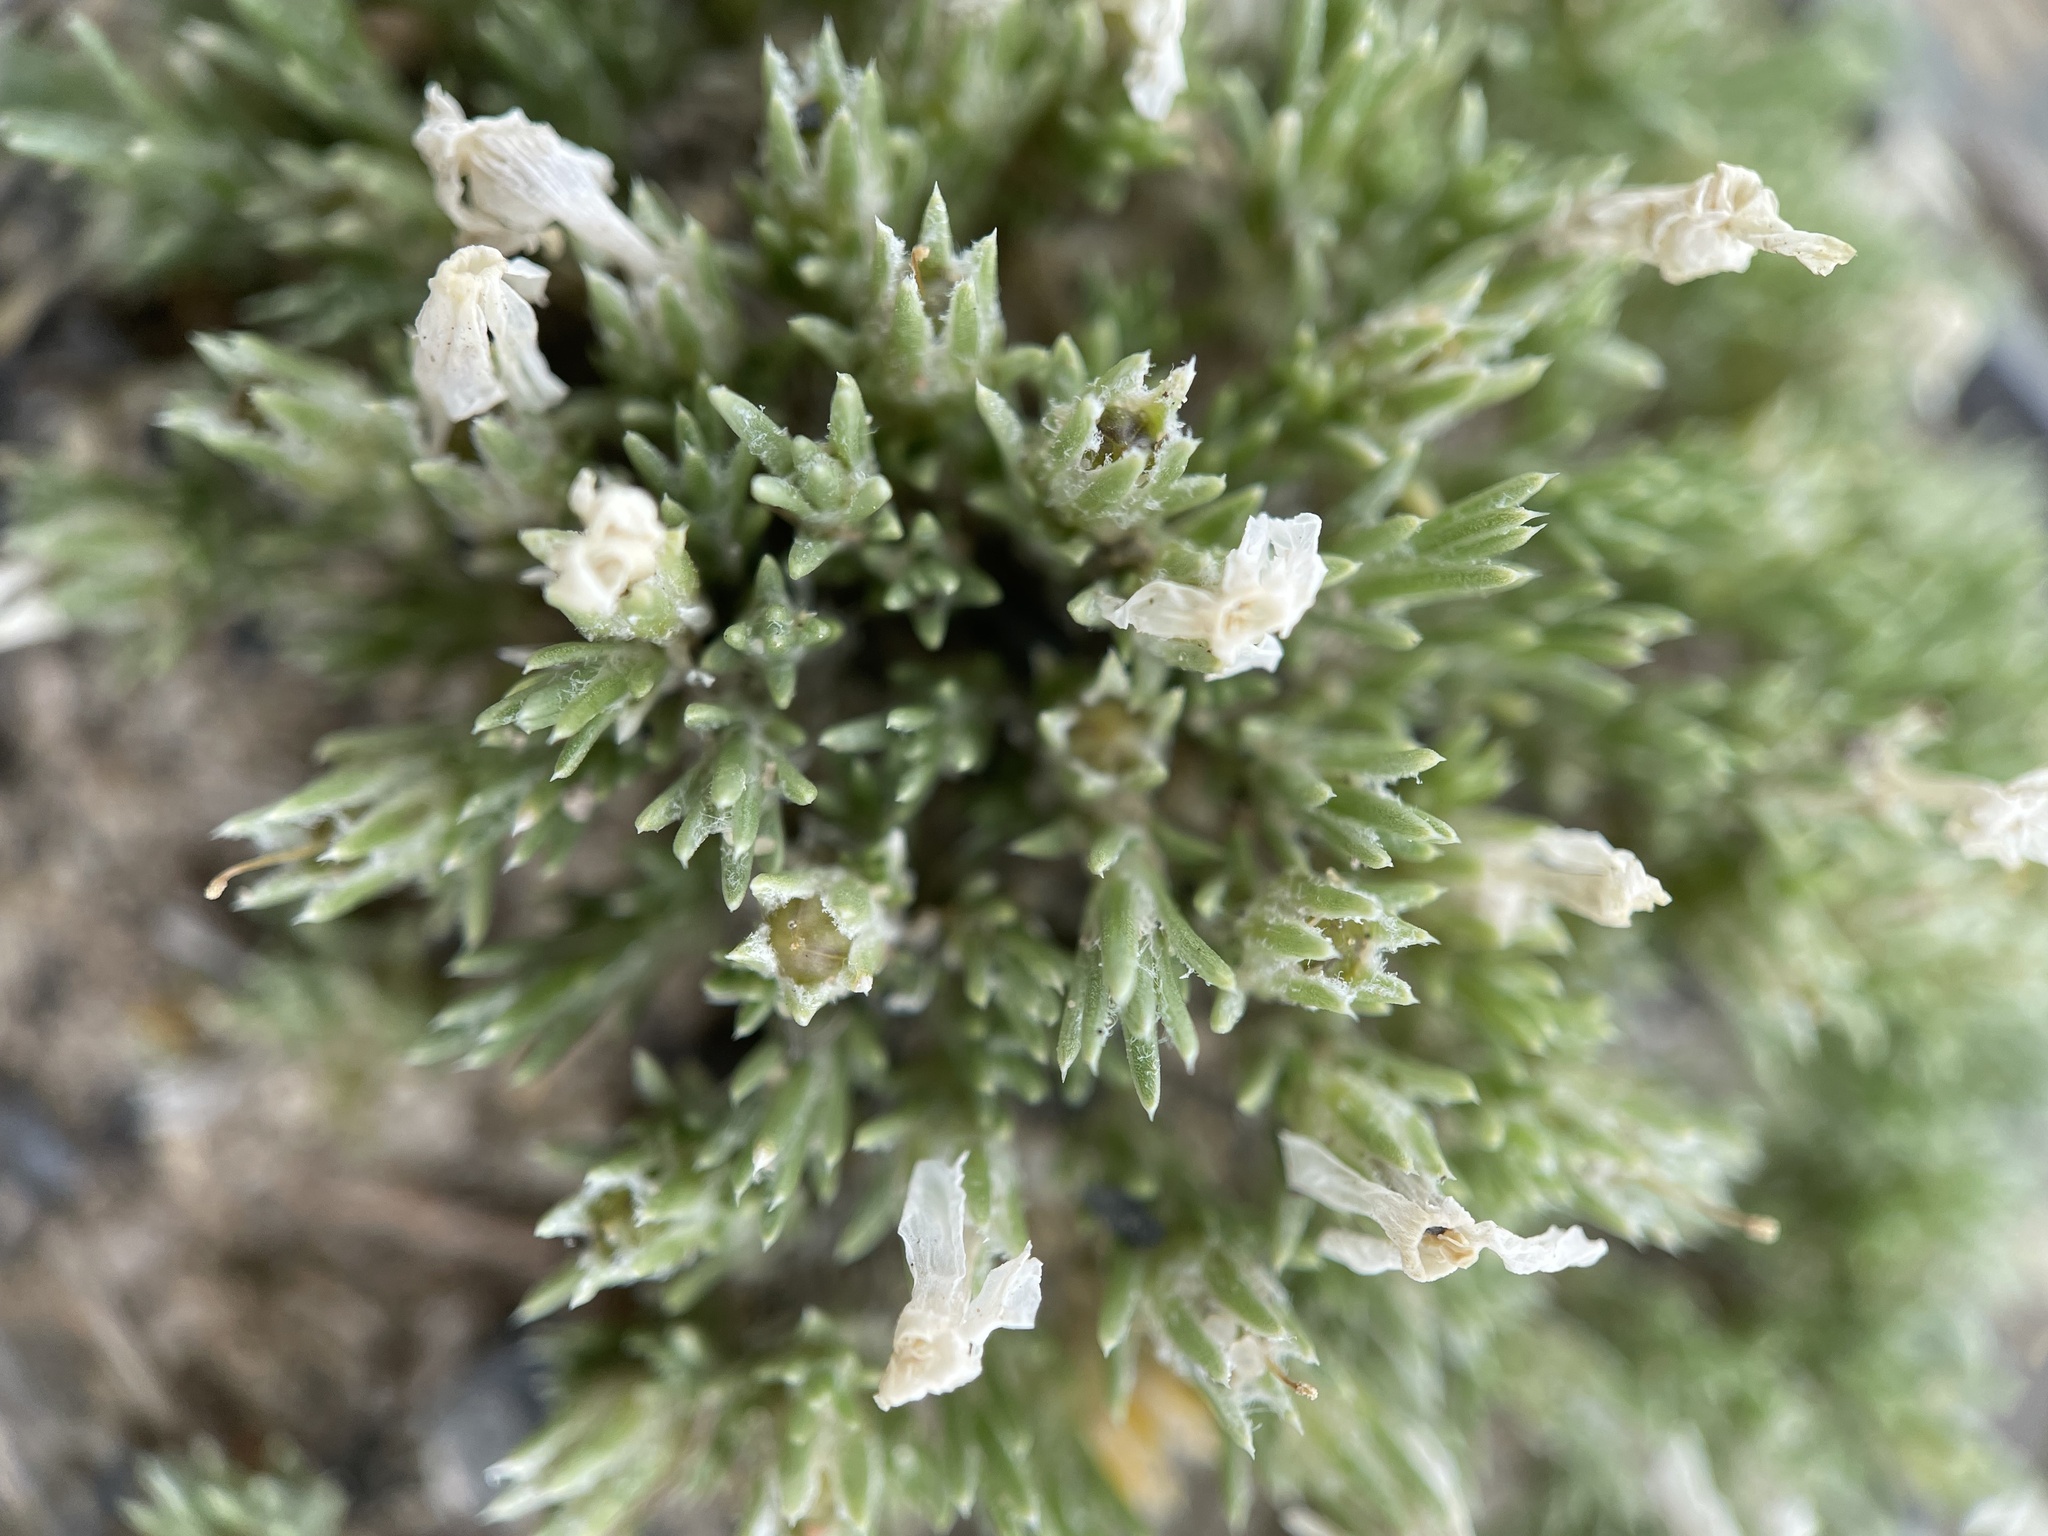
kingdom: Plantae
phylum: Tracheophyta
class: Magnoliopsida
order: Ericales
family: Polemoniaceae
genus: Phlox
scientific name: Phlox hoodii
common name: Moss phlox
